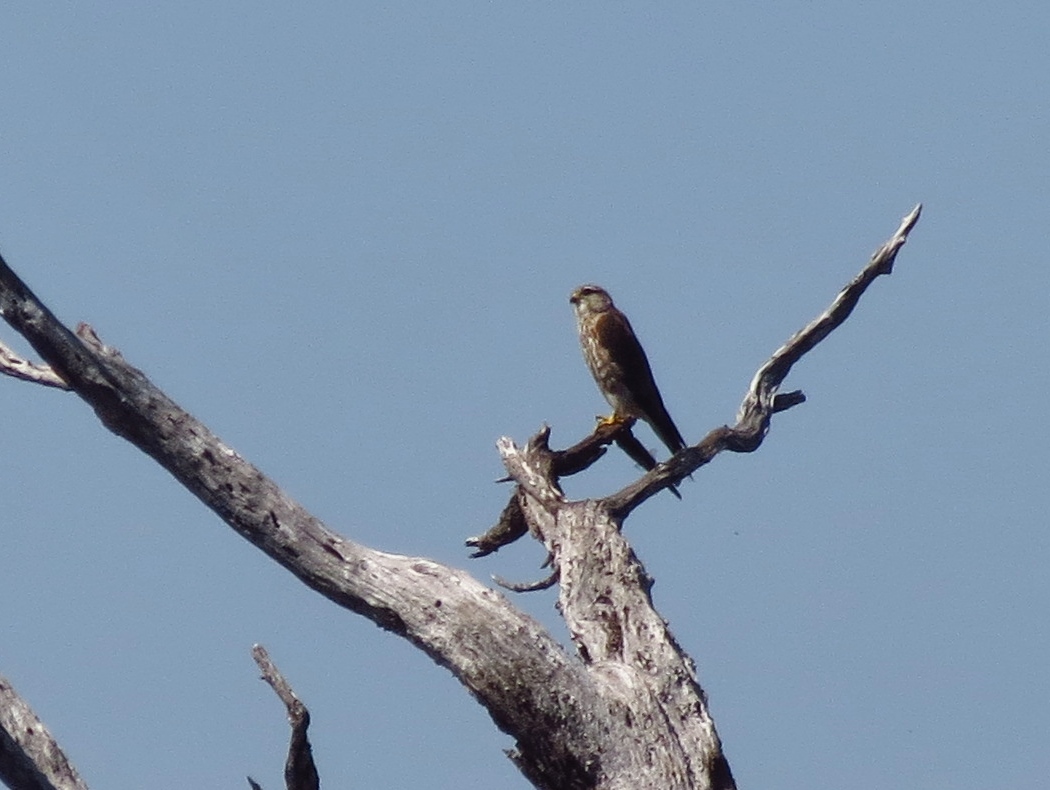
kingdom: Animalia
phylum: Chordata
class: Aves
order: Falconiformes
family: Falconidae
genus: Falco
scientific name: Falco columbarius
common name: Merlin
